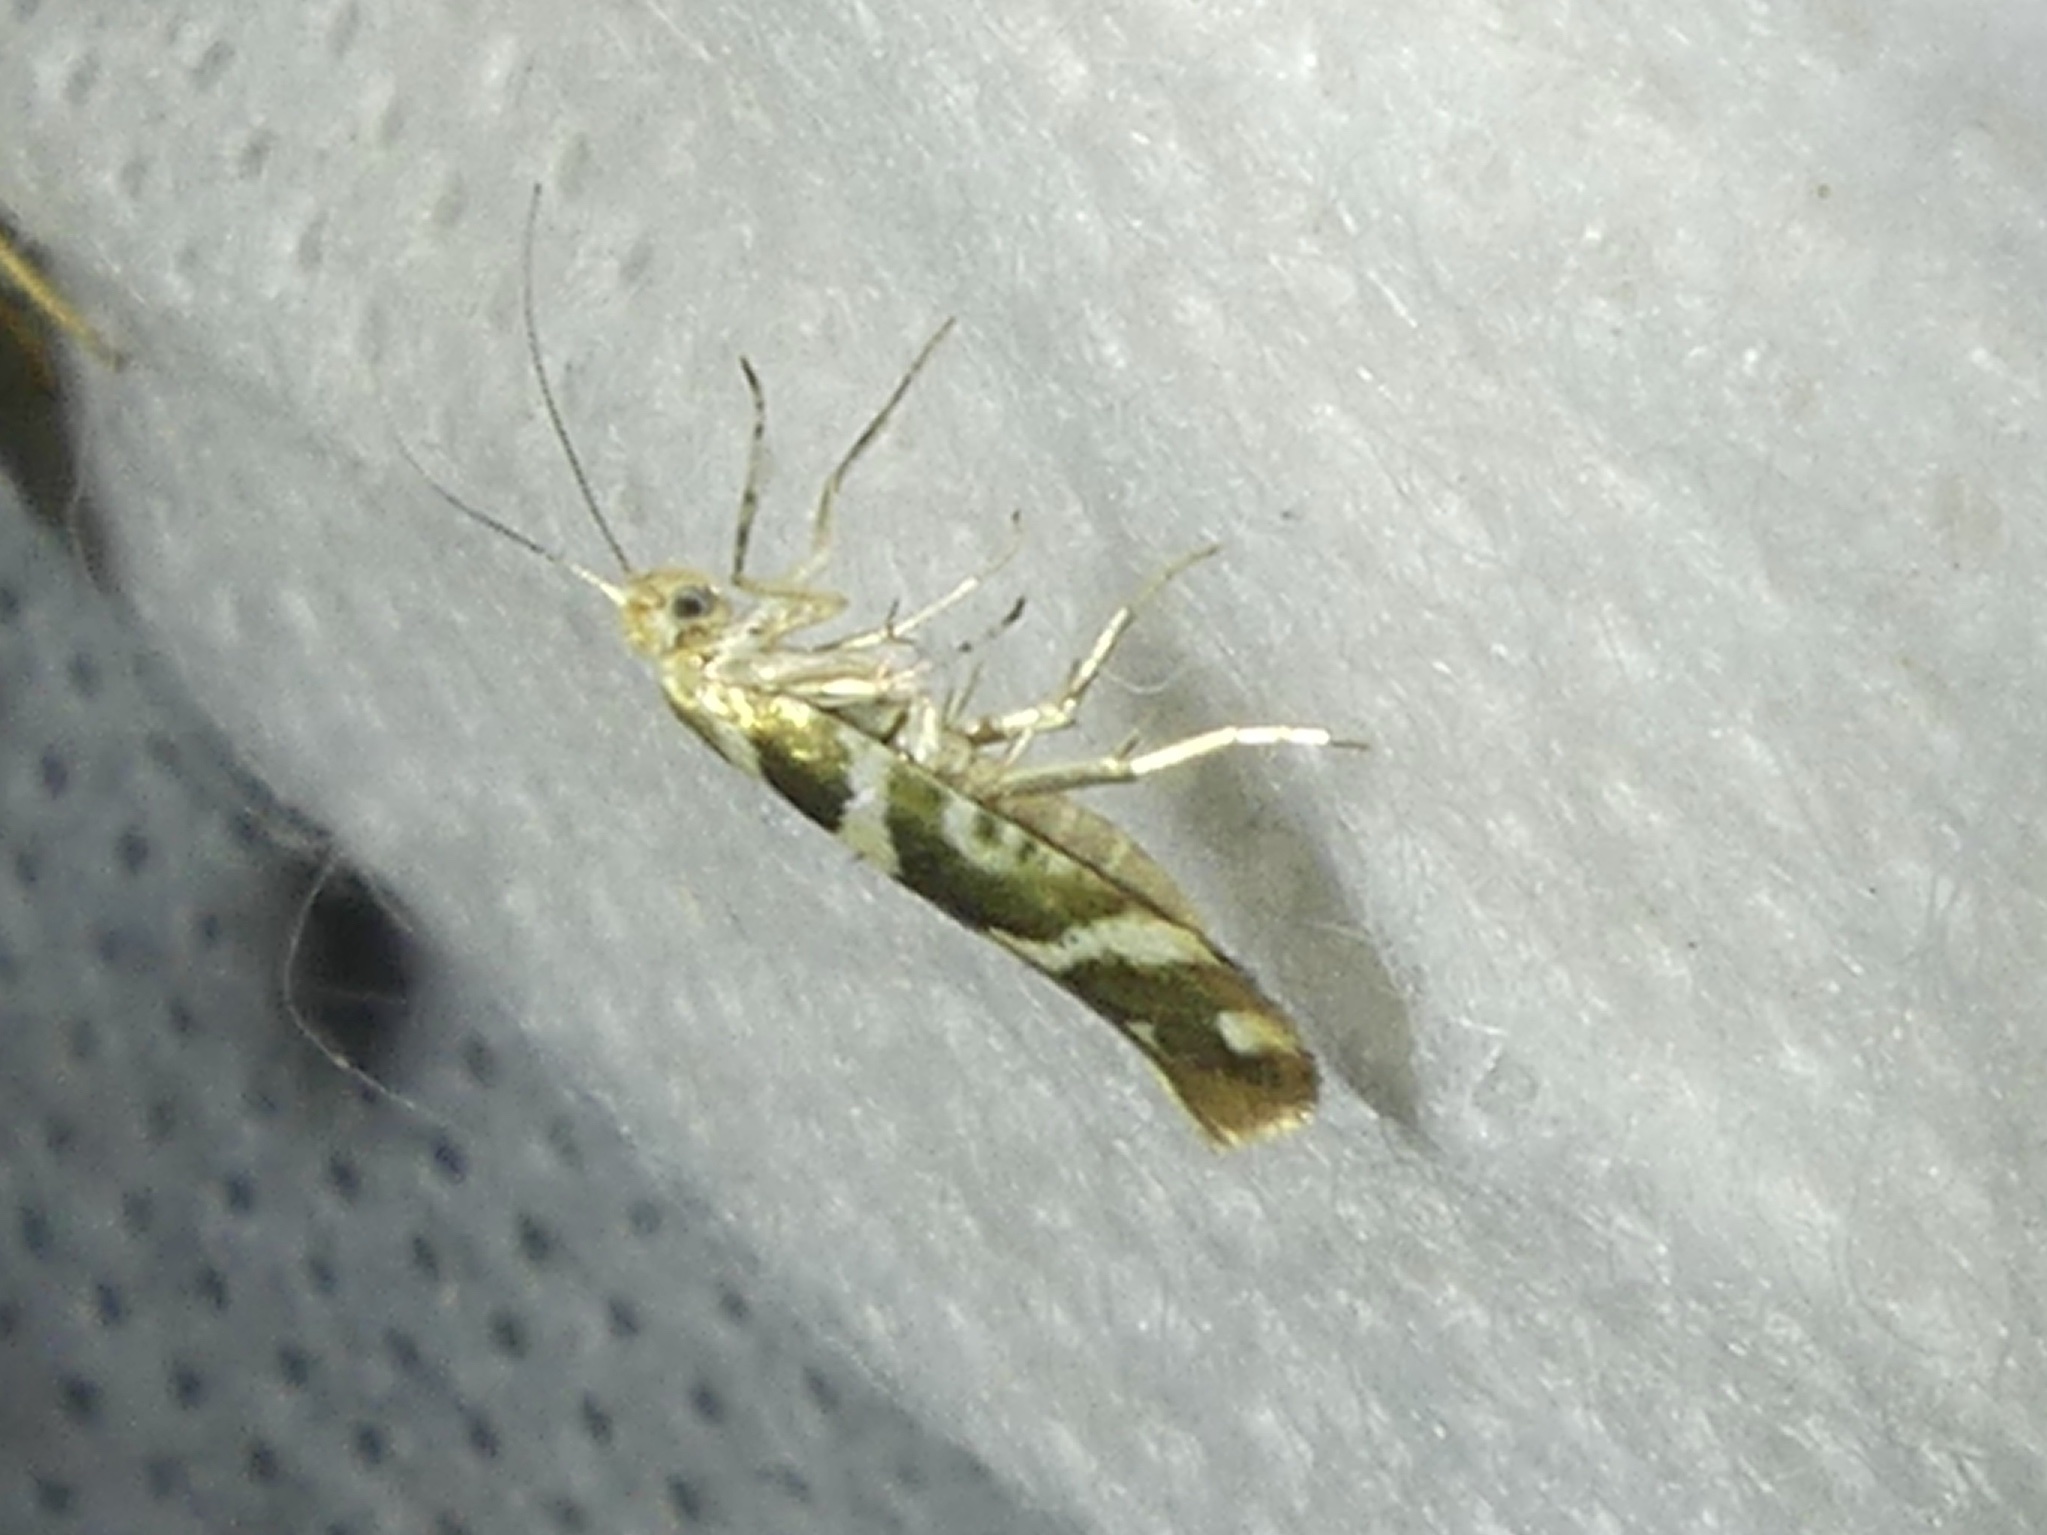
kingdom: Animalia
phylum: Arthropoda
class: Insecta
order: Lepidoptera
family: Argyresthiidae
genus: Argyresthia
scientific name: Argyresthia goedartella
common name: Golden argent
